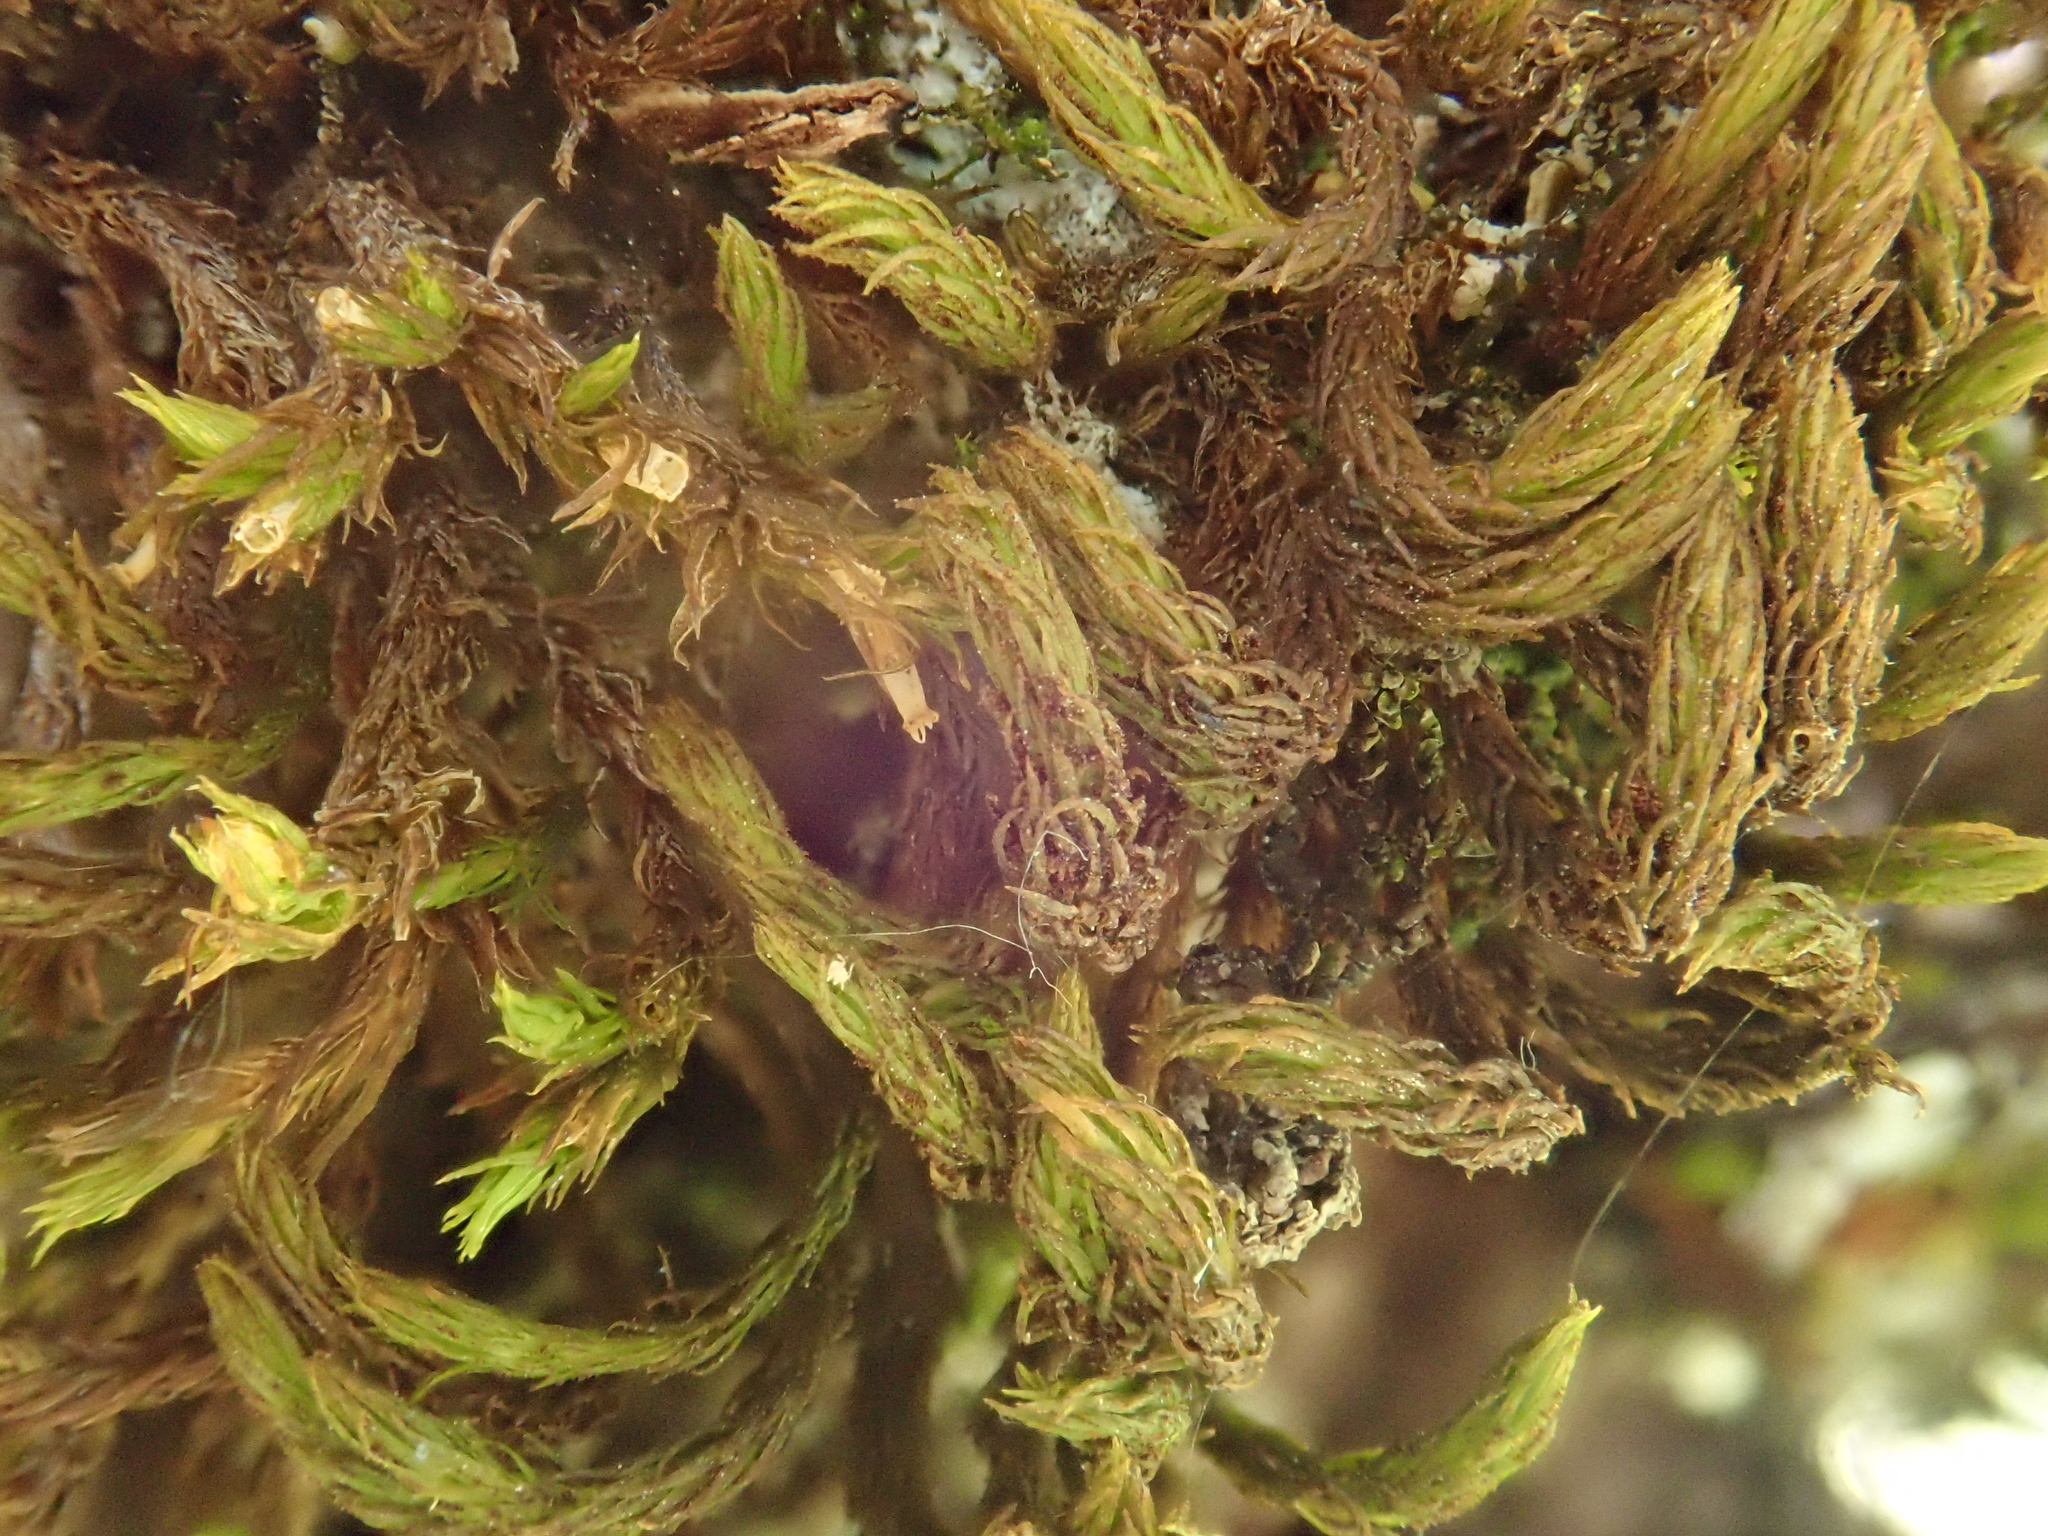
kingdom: Plantae
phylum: Bryophyta
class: Bryopsida
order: Orthotrichales
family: Orthotrichaceae
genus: Pulvigera
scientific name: Pulvigera lyellii
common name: Lyell's bristle-moss
